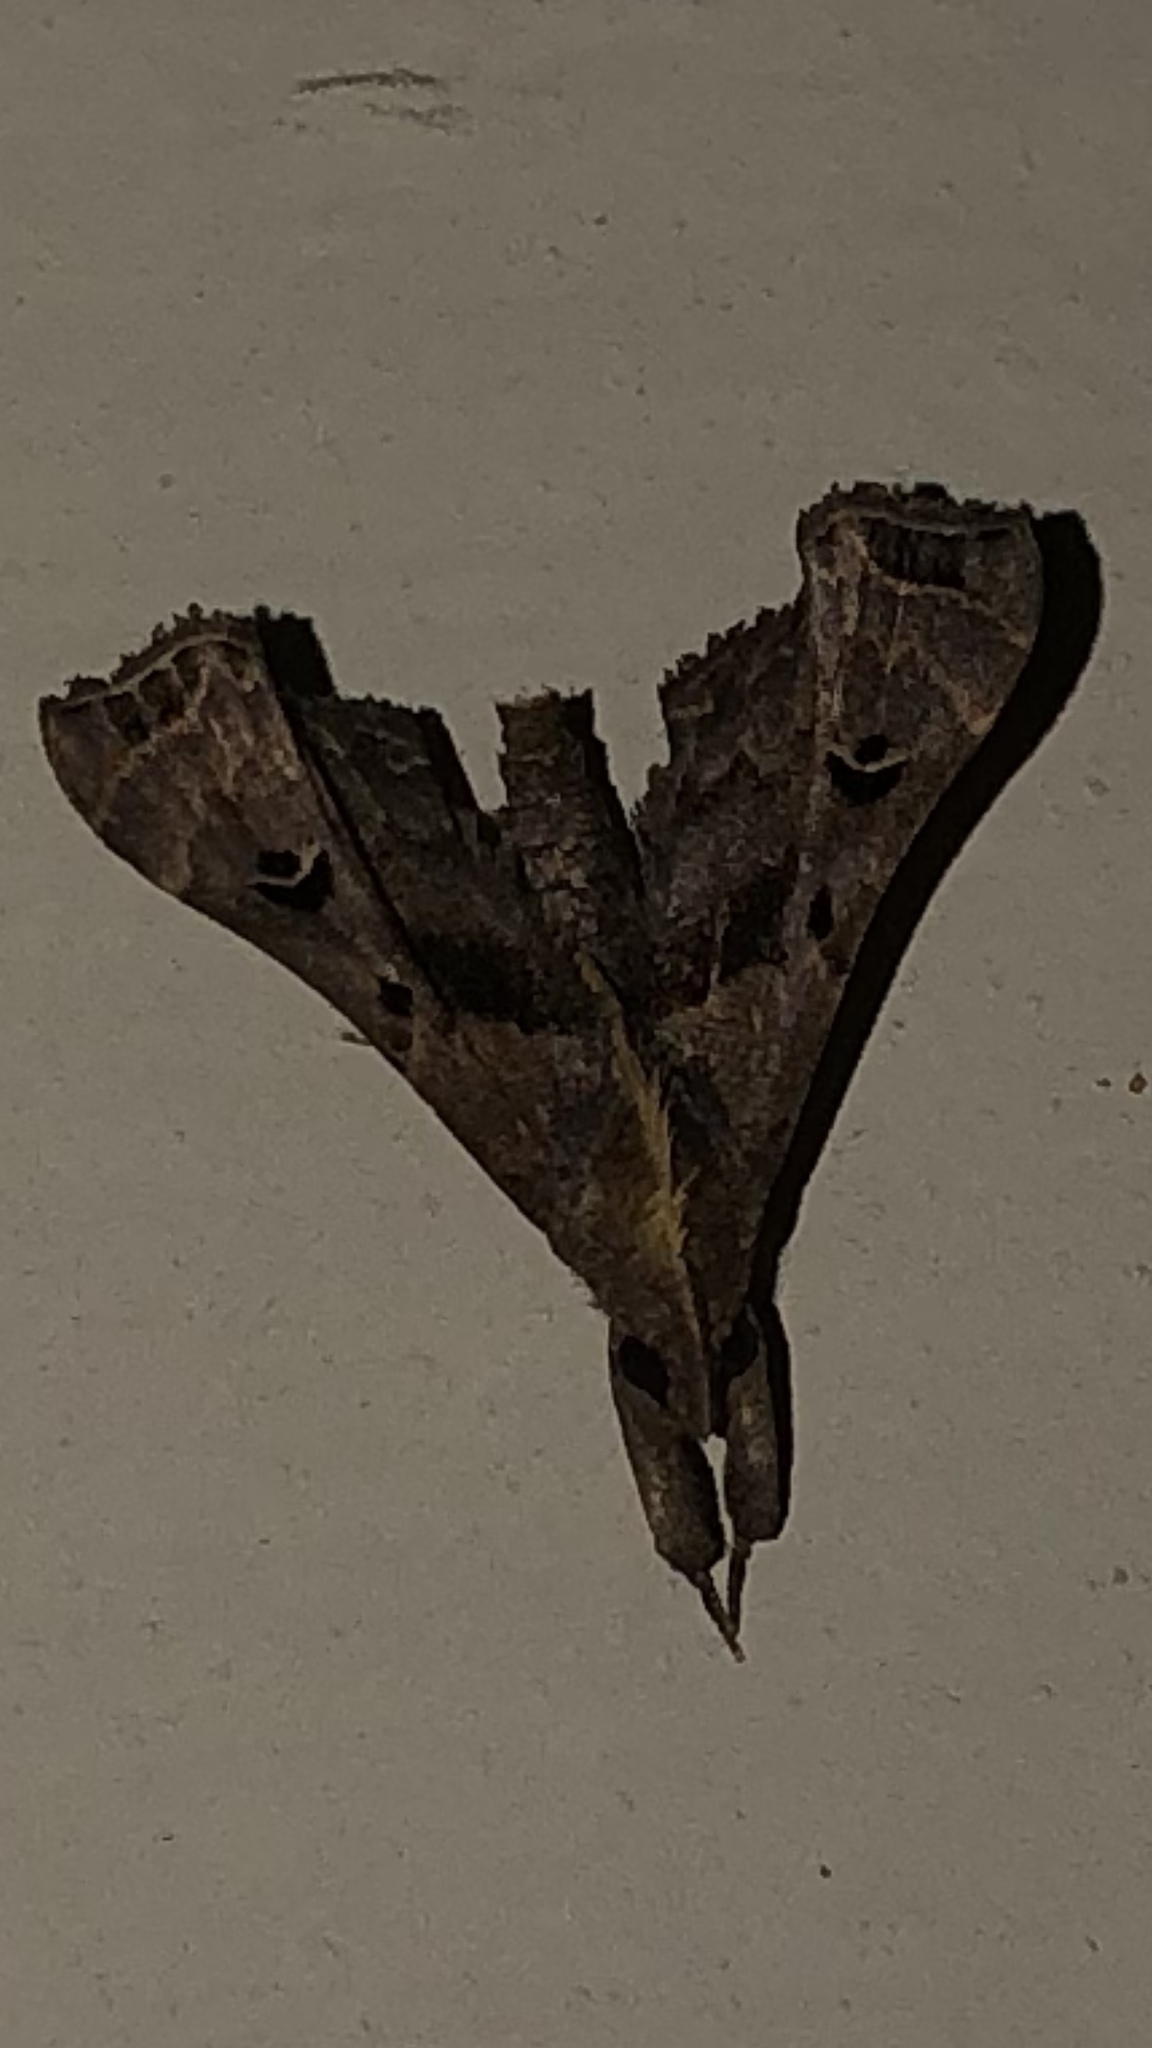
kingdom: Animalia
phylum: Arthropoda
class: Insecta
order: Lepidoptera
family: Erebidae
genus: Palthis
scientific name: Palthis asopialis
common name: Faint-spotted palthis moth
